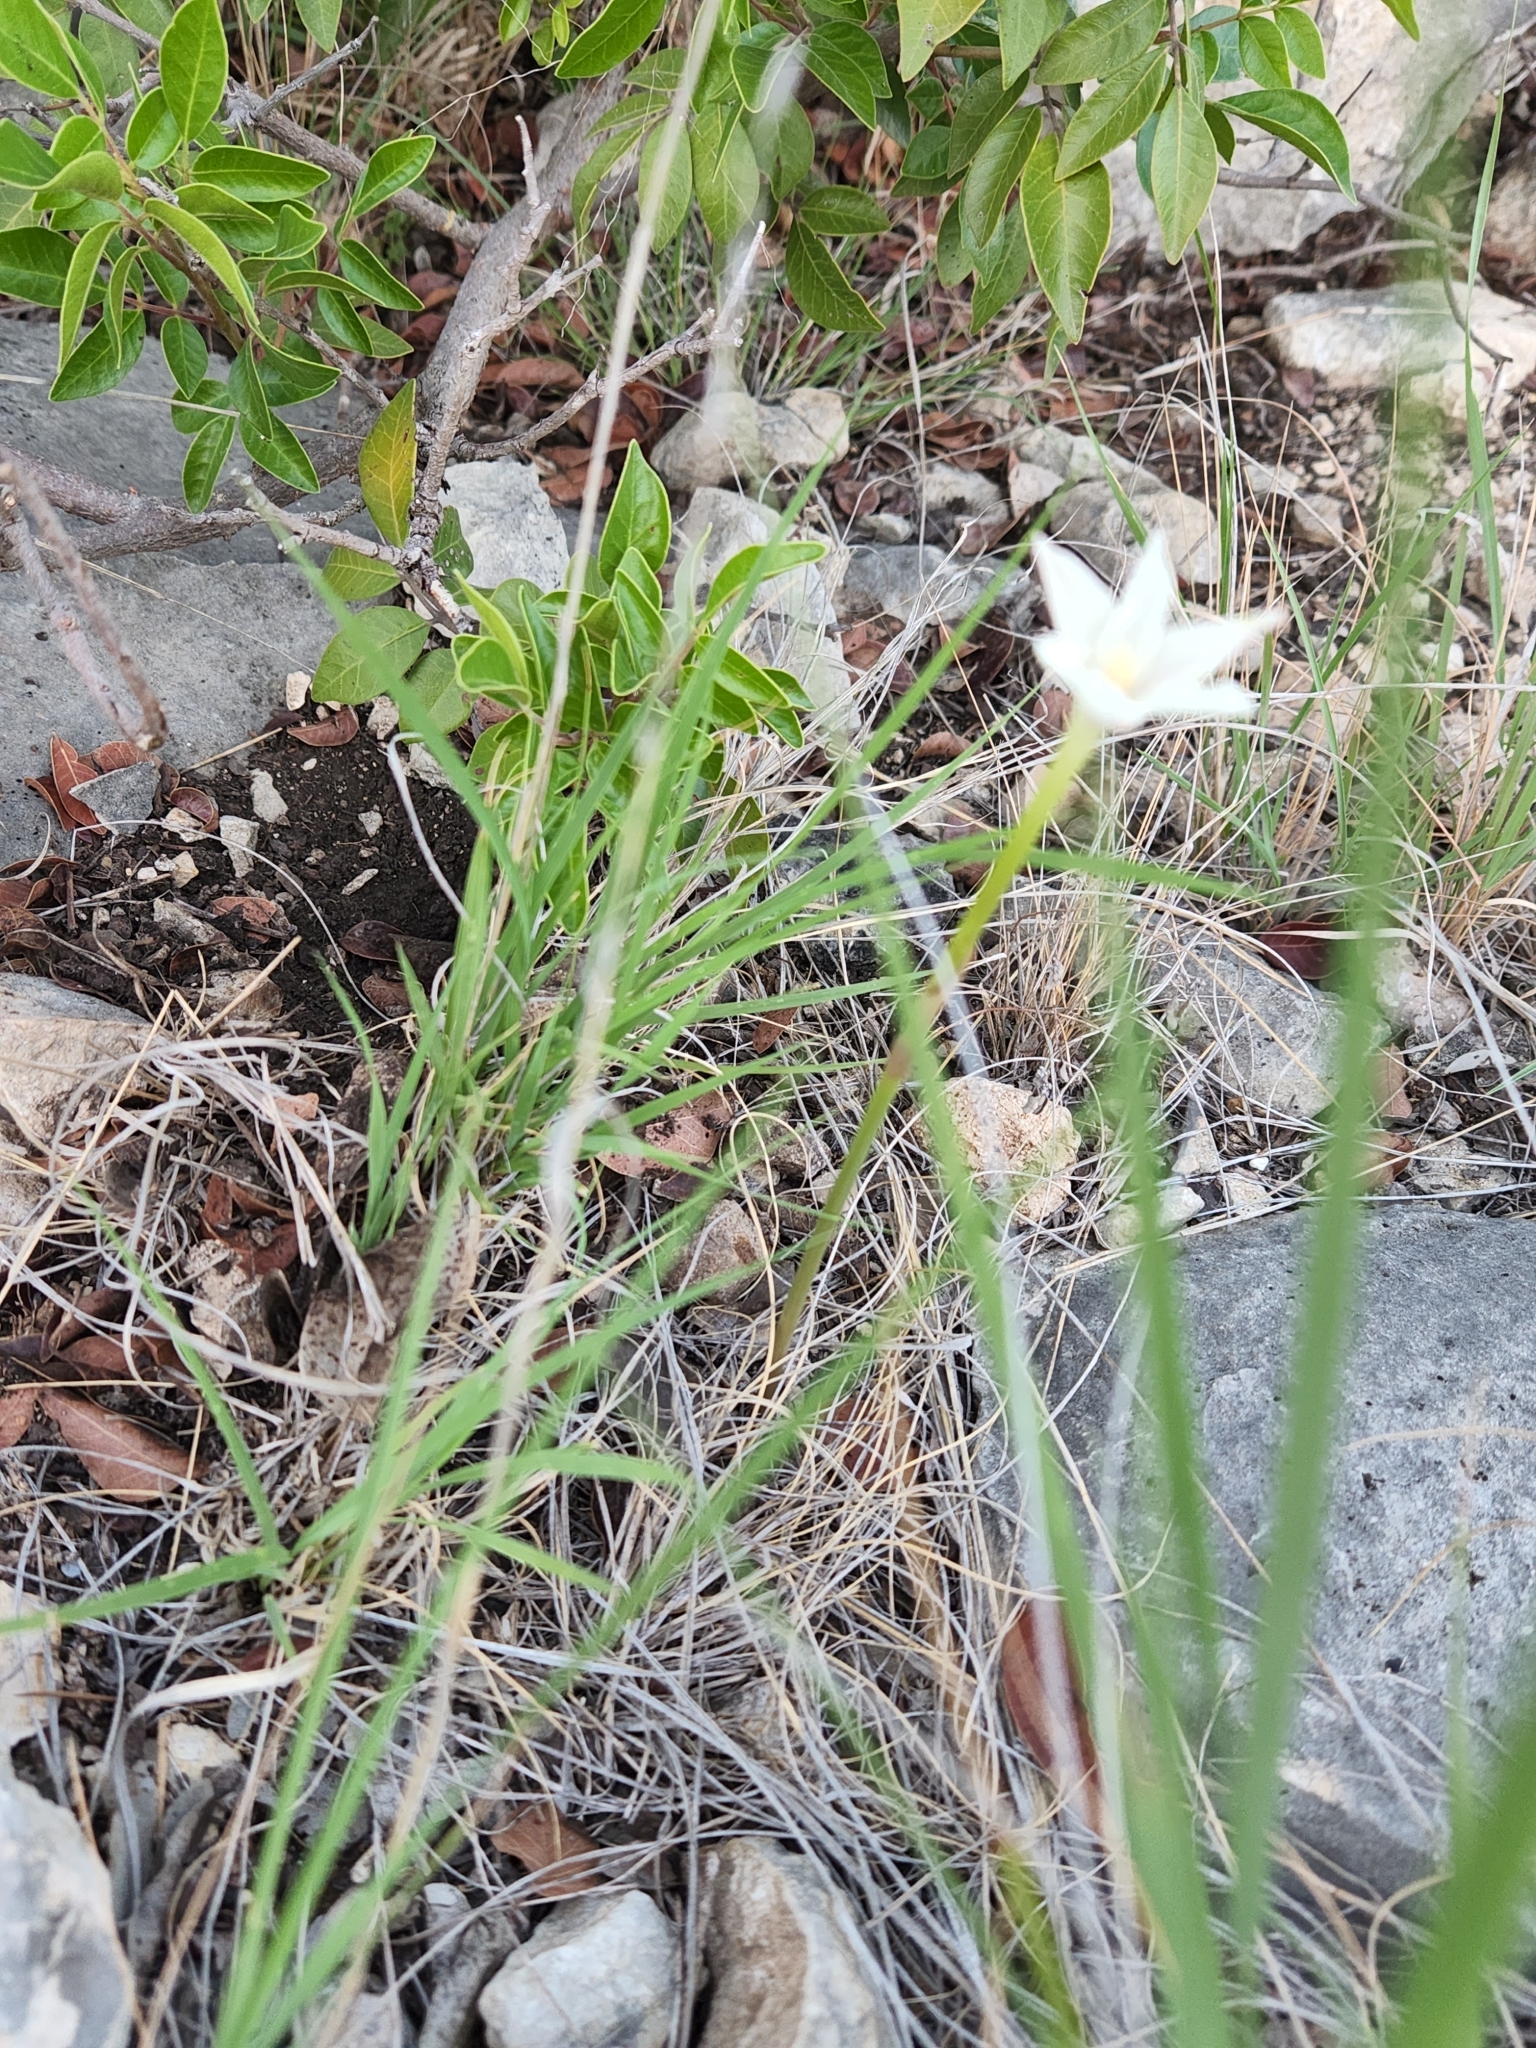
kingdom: Plantae
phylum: Tracheophyta
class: Liliopsida
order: Asparagales
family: Amaryllidaceae
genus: Zephyranthes
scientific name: Zephyranthes chlorosolen
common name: Evening rain-lily
